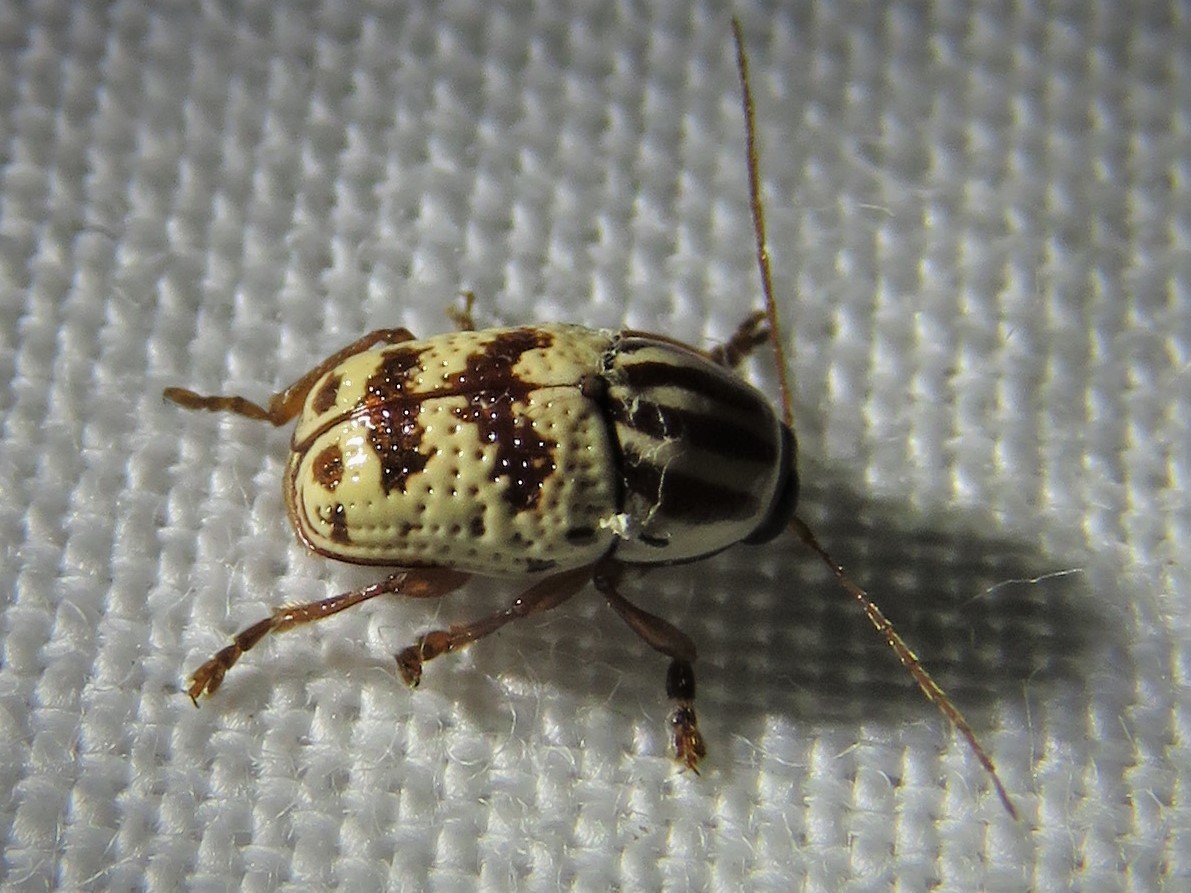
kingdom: Animalia
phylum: Arthropoda
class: Insecta
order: Coleoptera
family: Chrysomelidae
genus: Cryptocephalus
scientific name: Cryptocephalus leucomelas
